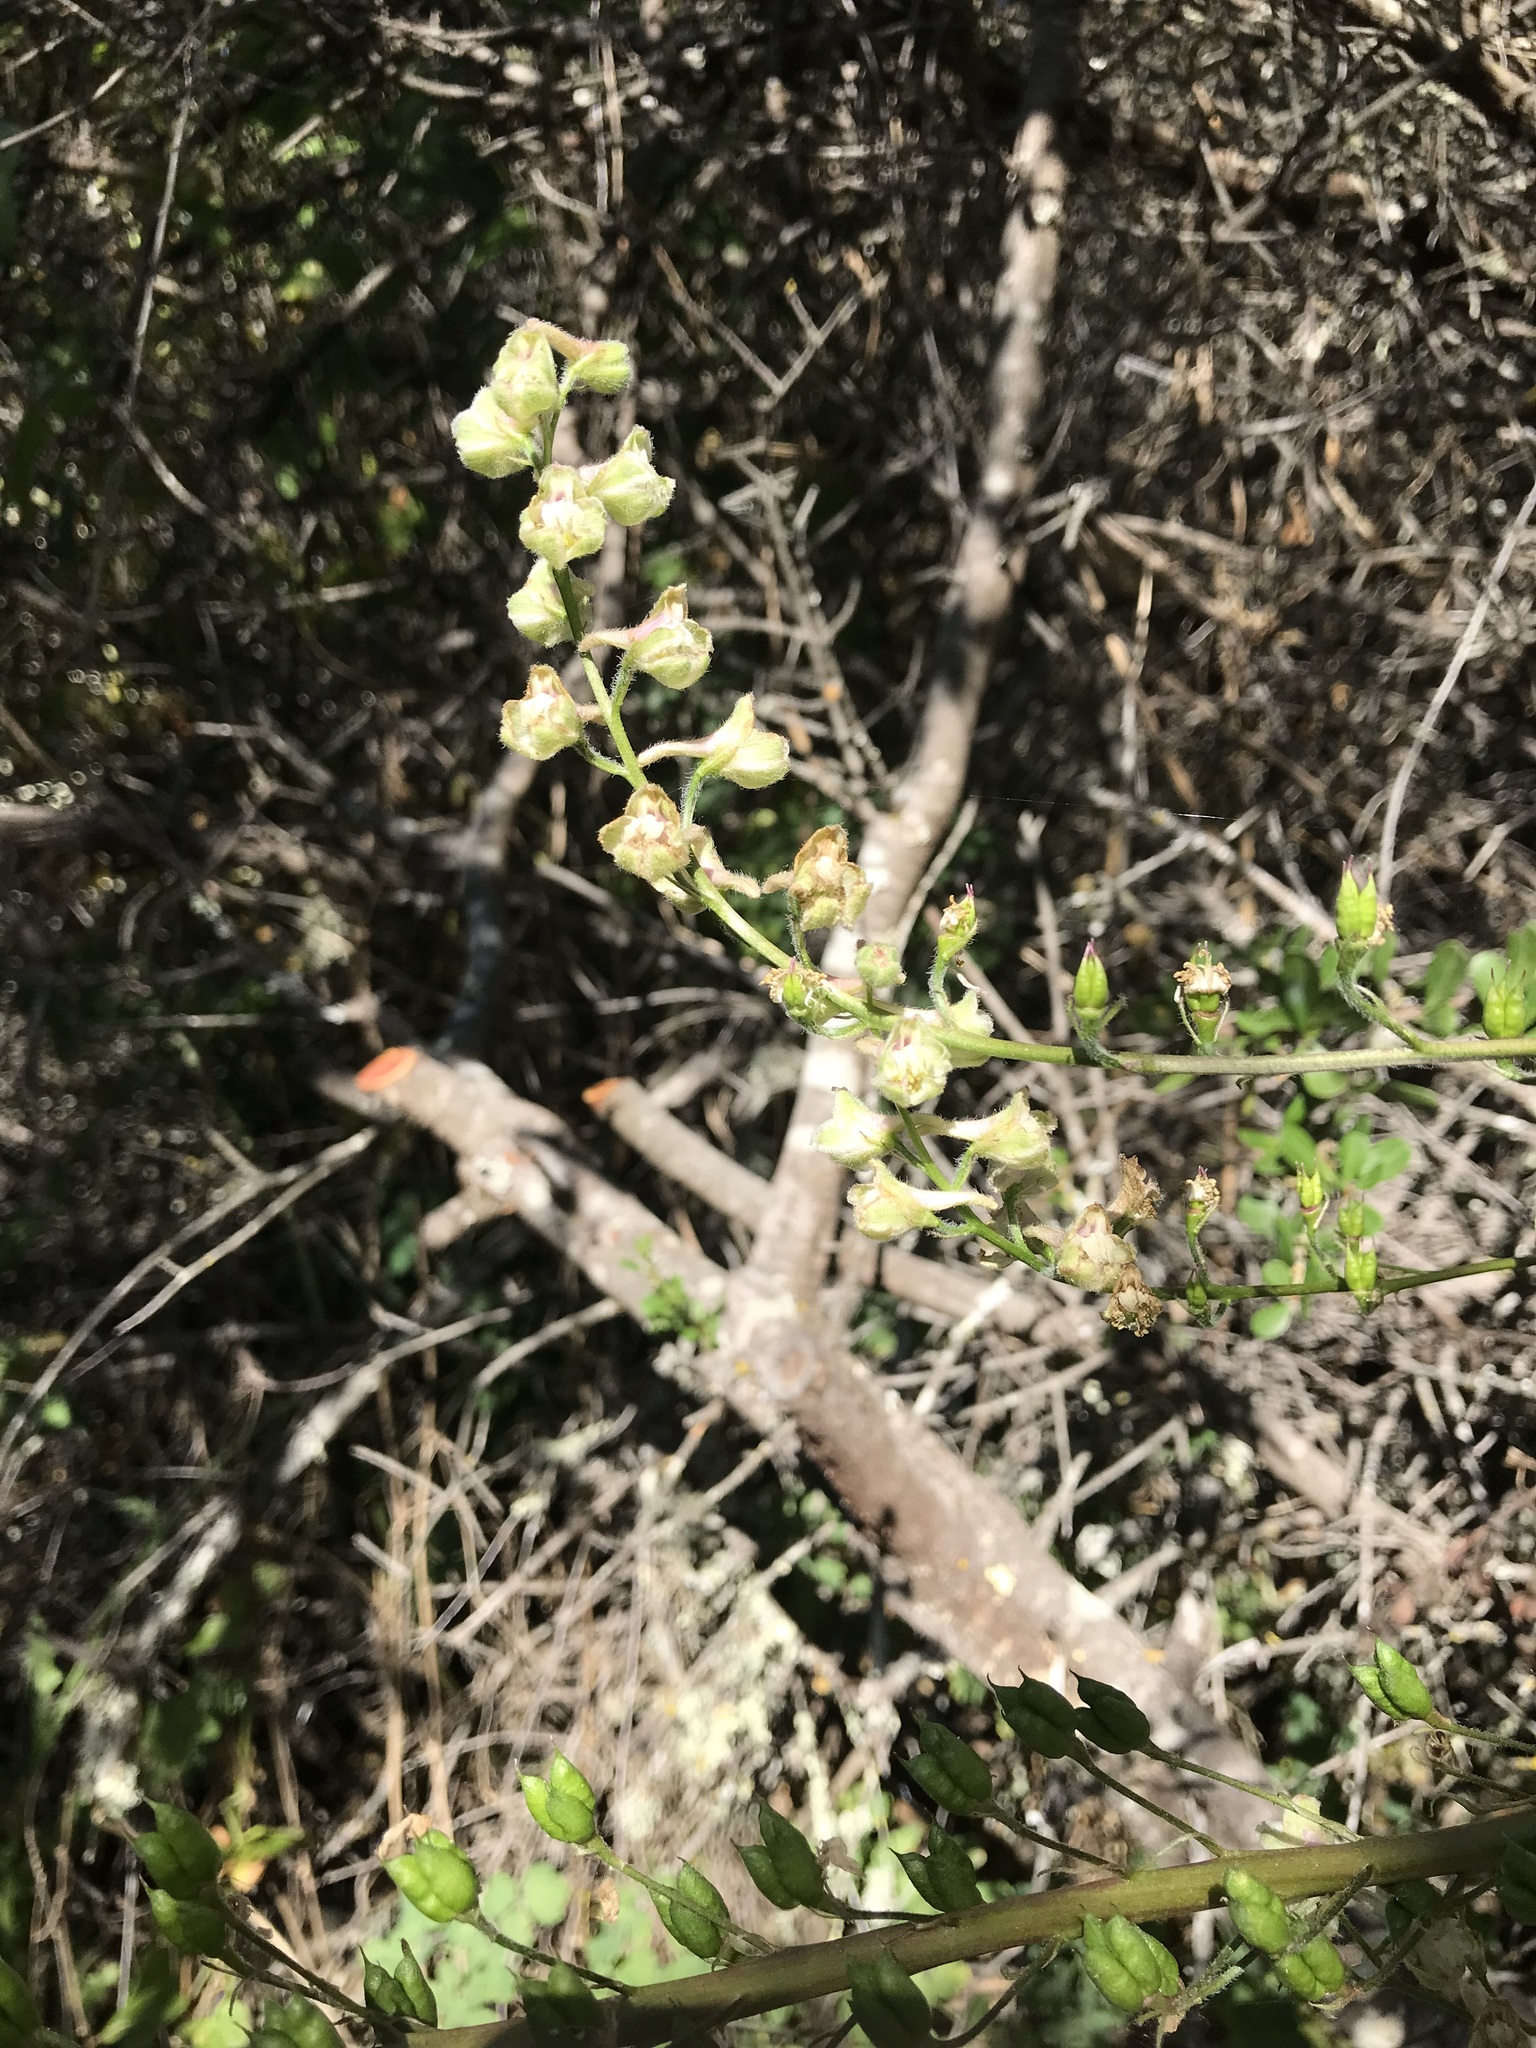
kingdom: Plantae
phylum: Tracheophyta
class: Magnoliopsida
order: Ranunculales
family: Ranunculaceae
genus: Delphinium
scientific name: Delphinium californicum
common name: California larkspur
